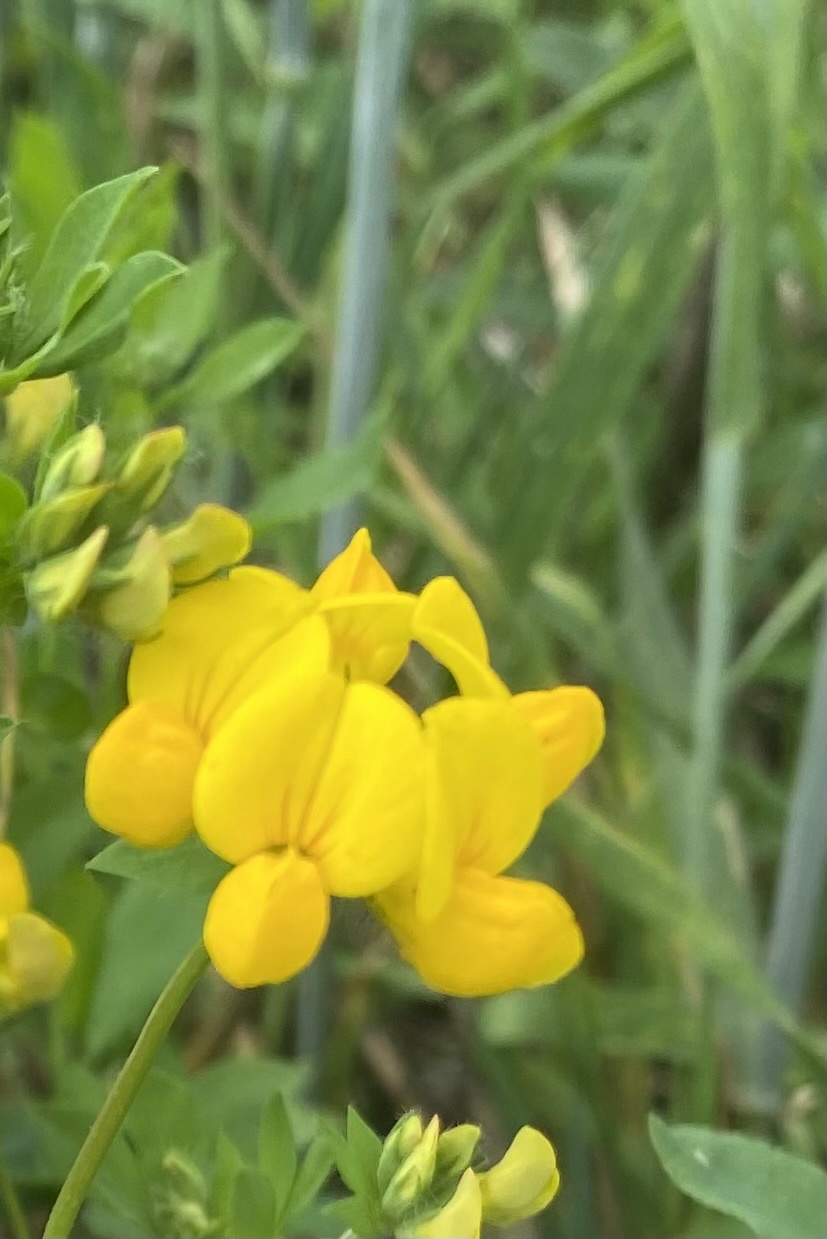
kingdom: Plantae
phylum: Tracheophyta
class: Magnoliopsida
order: Fabales
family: Fabaceae
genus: Lotus
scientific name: Lotus corniculatus
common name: Common bird's-foot-trefoil
